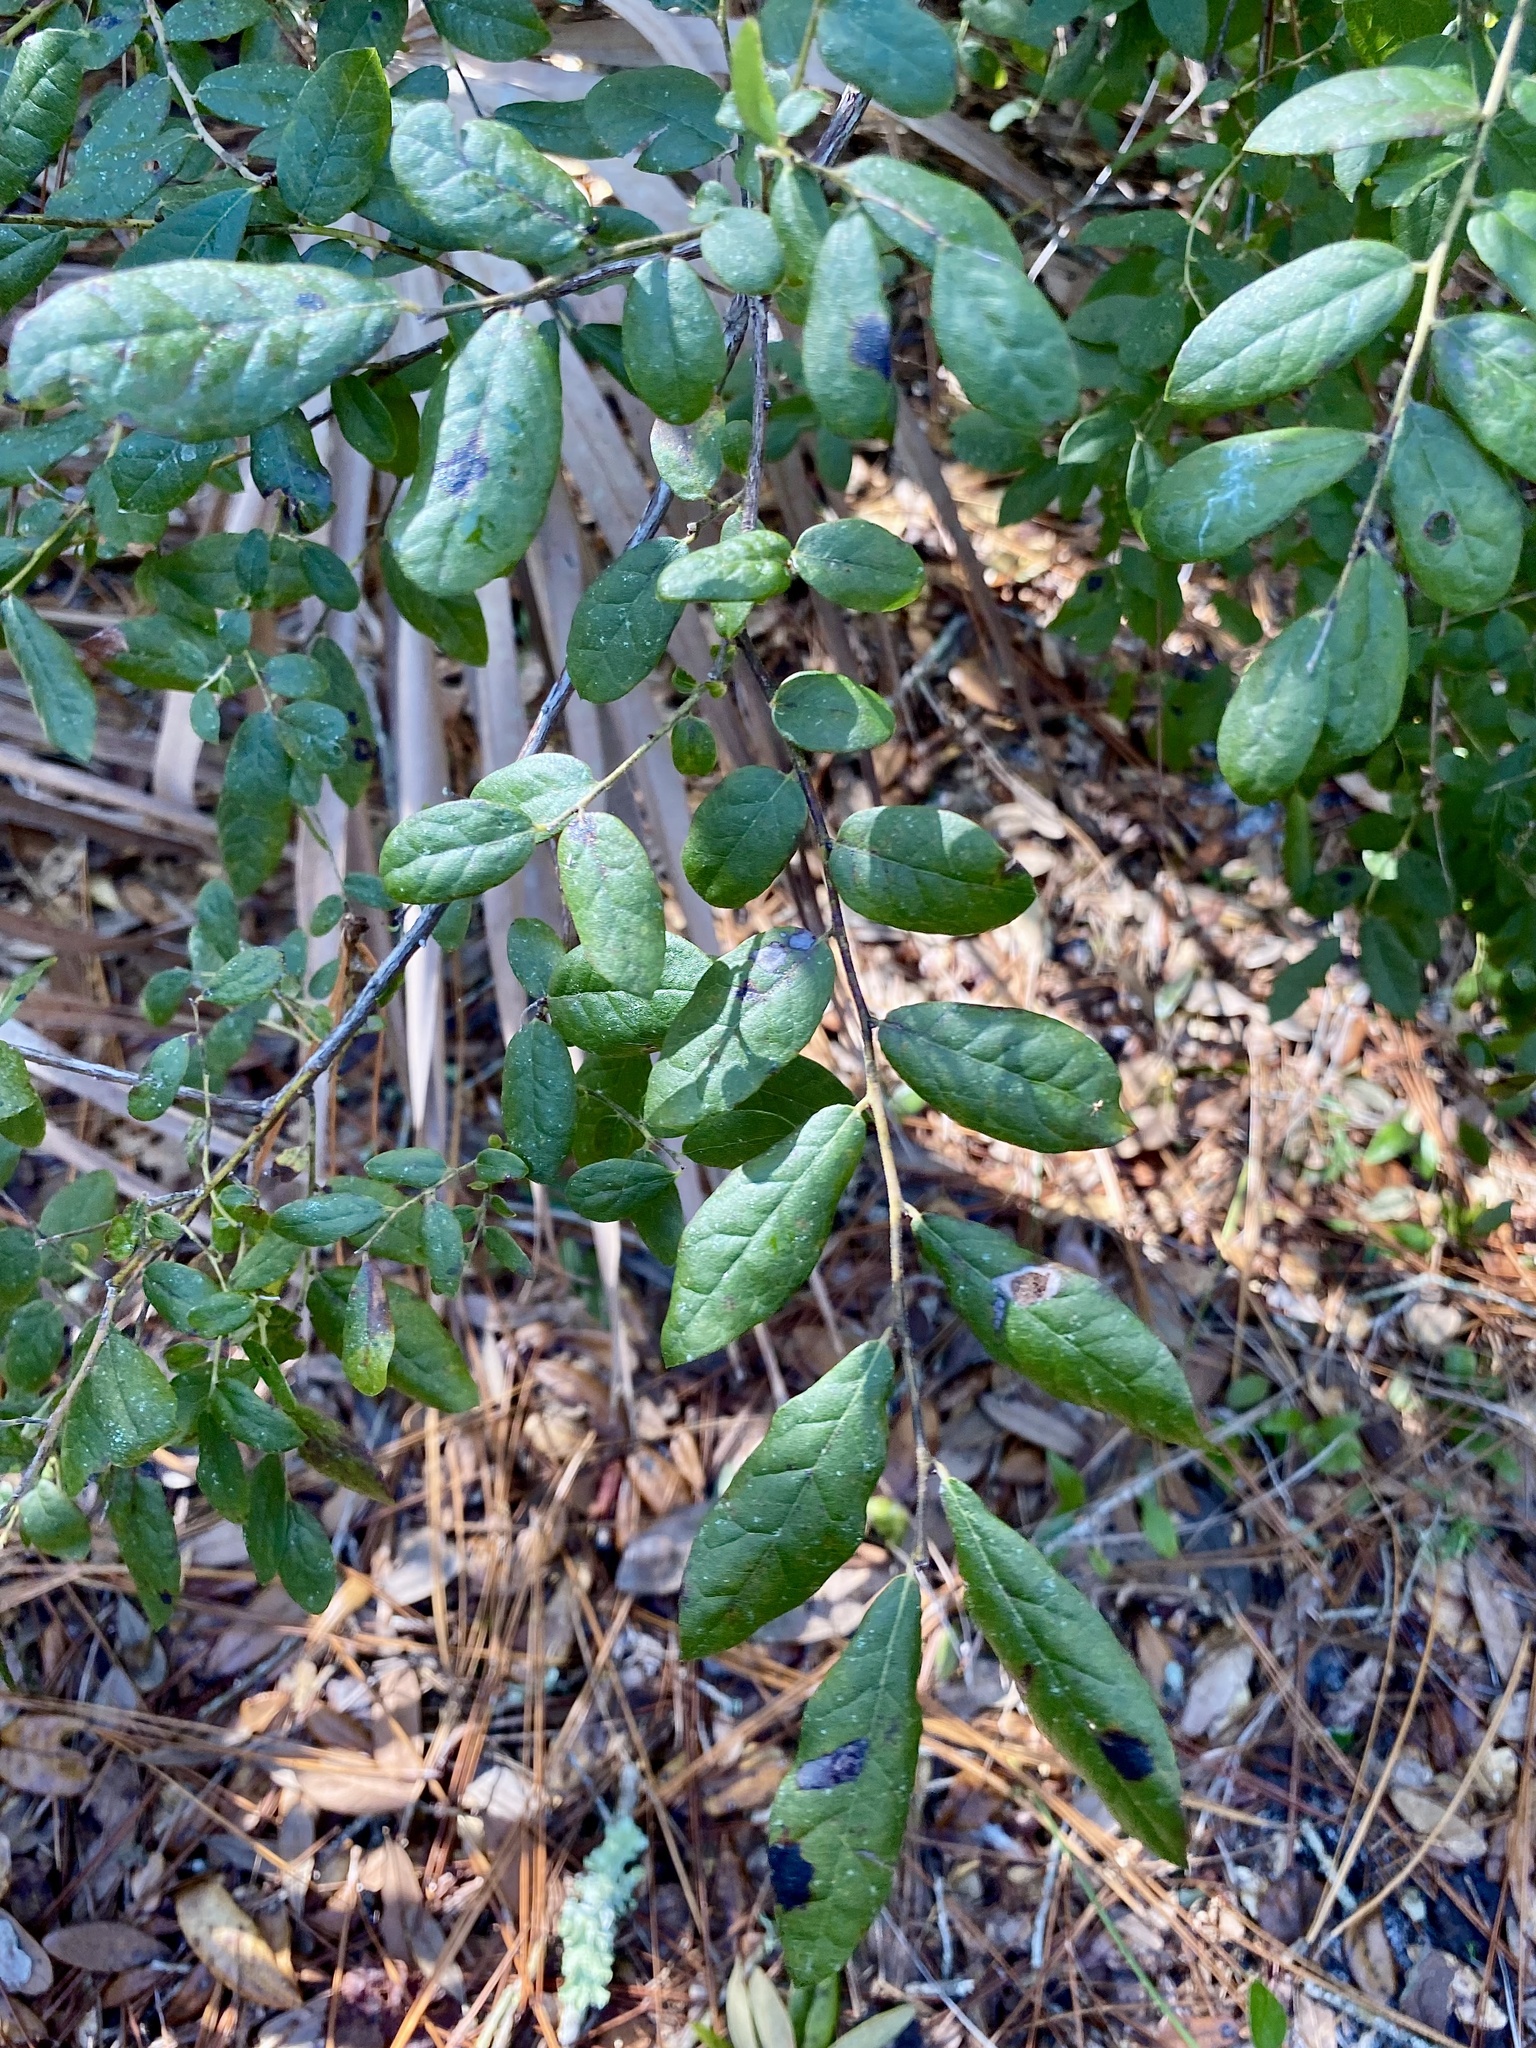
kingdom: Plantae
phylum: Tracheophyta
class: Magnoliopsida
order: Ericales
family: Ericaceae
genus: Vaccinium
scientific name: Vaccinium stamineum
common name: Deerberry
